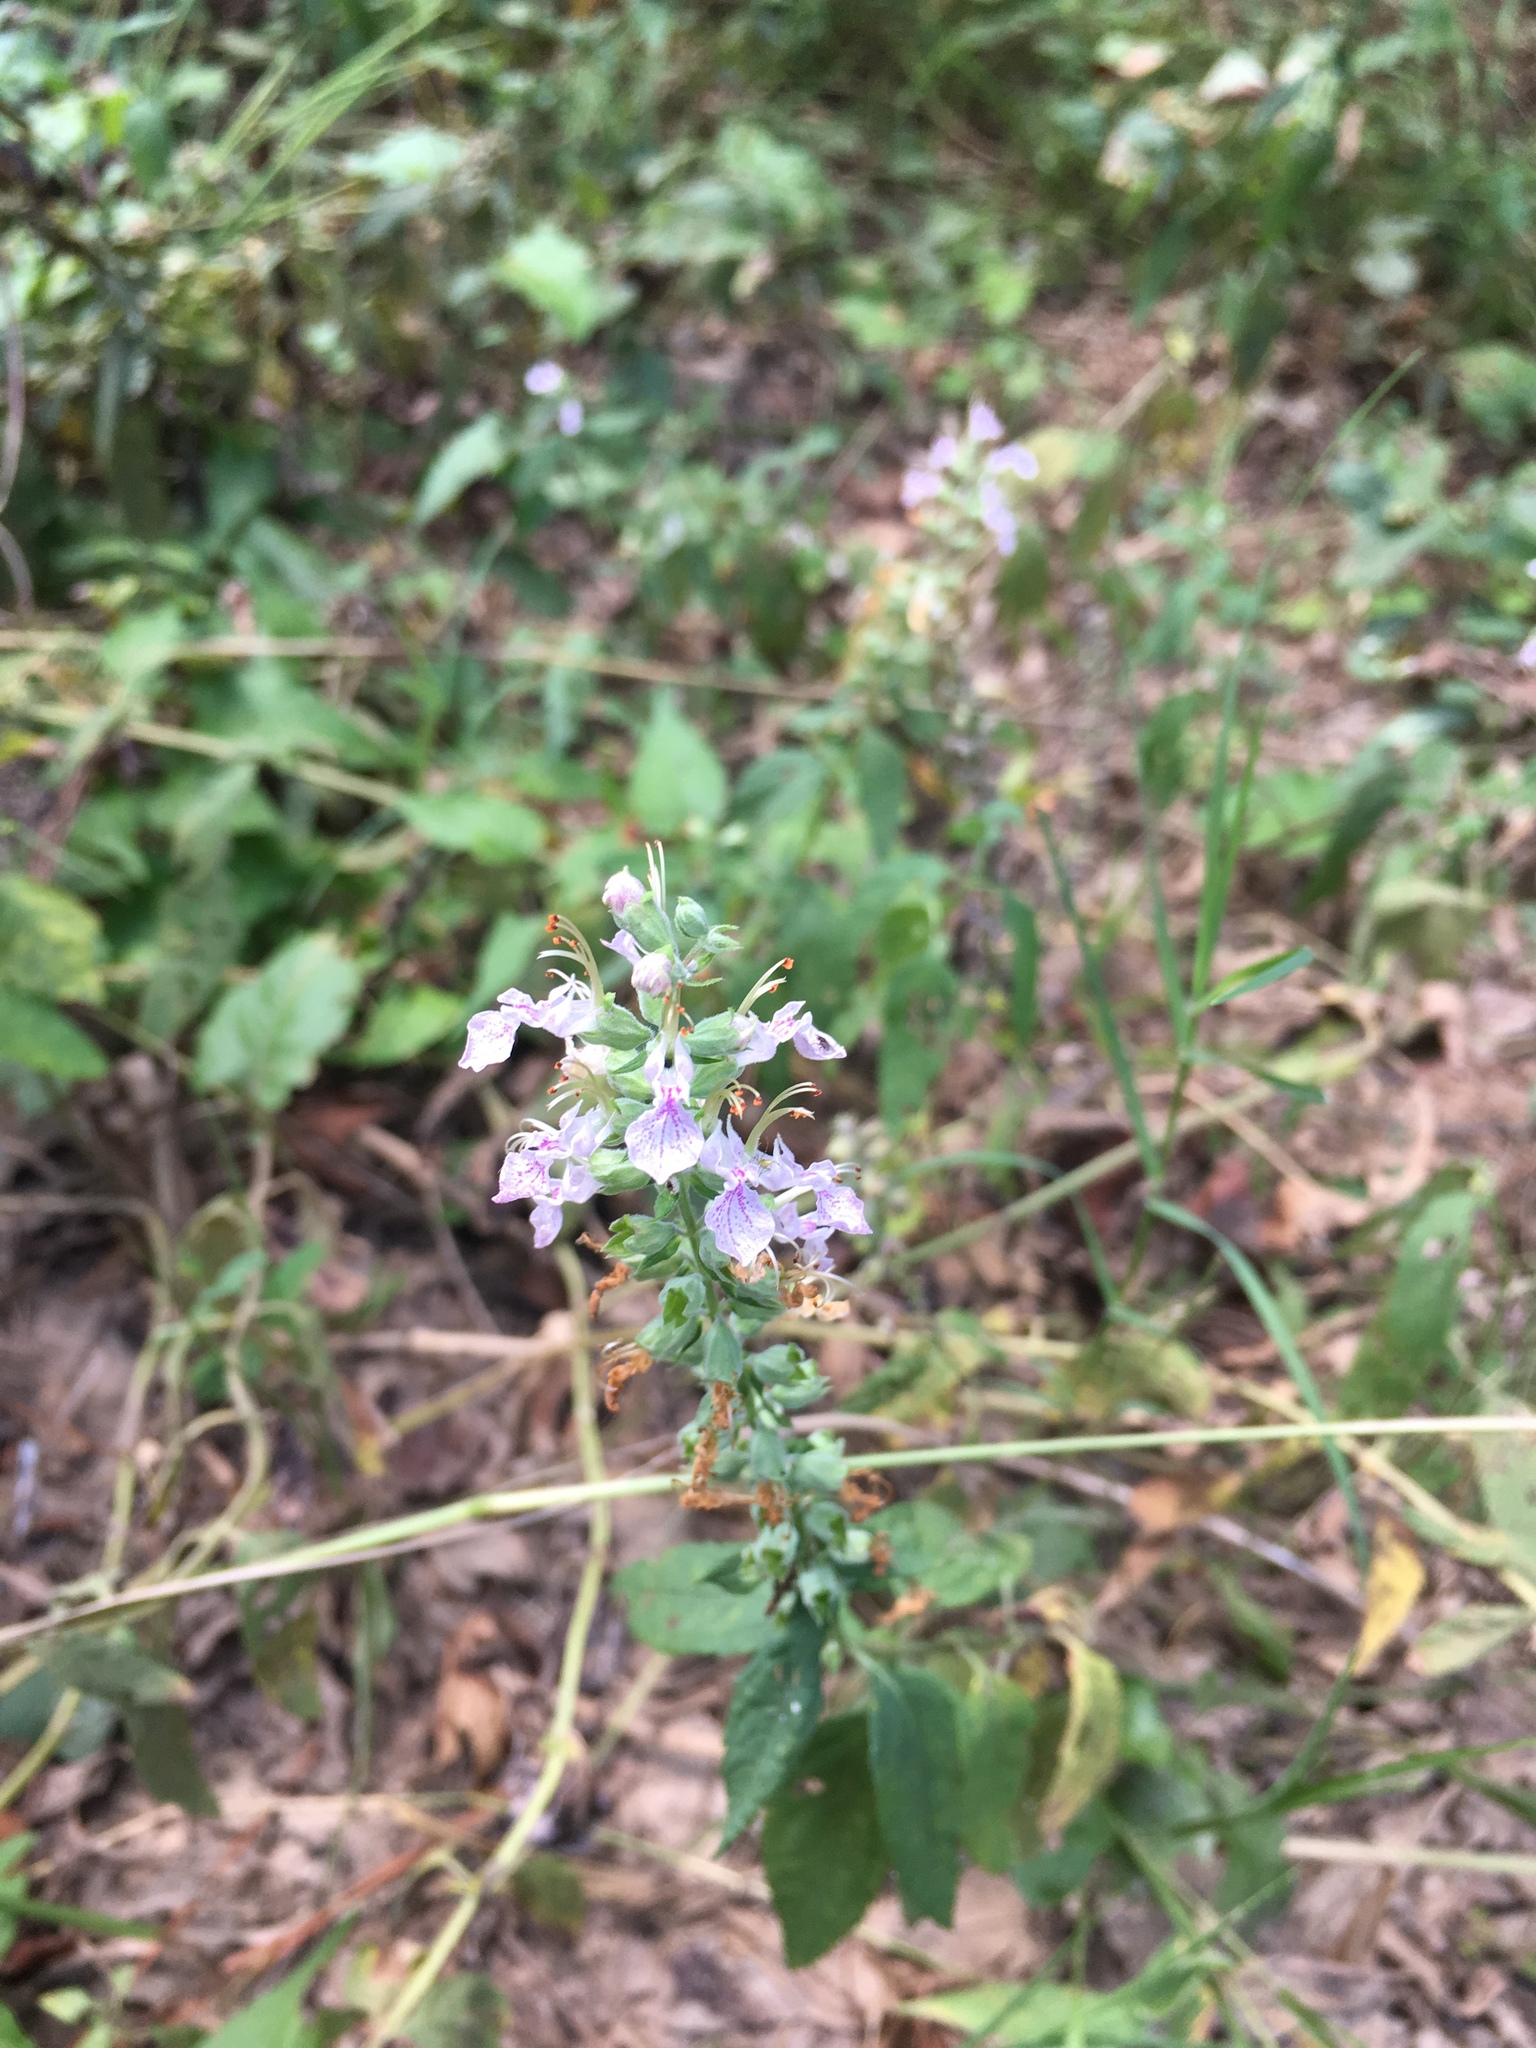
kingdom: Plantae
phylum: Tracheophyta
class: Magnoliopsida
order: Lamiales
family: Lamiaceae
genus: Teucrium
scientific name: Teucrium canadense
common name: American germander
